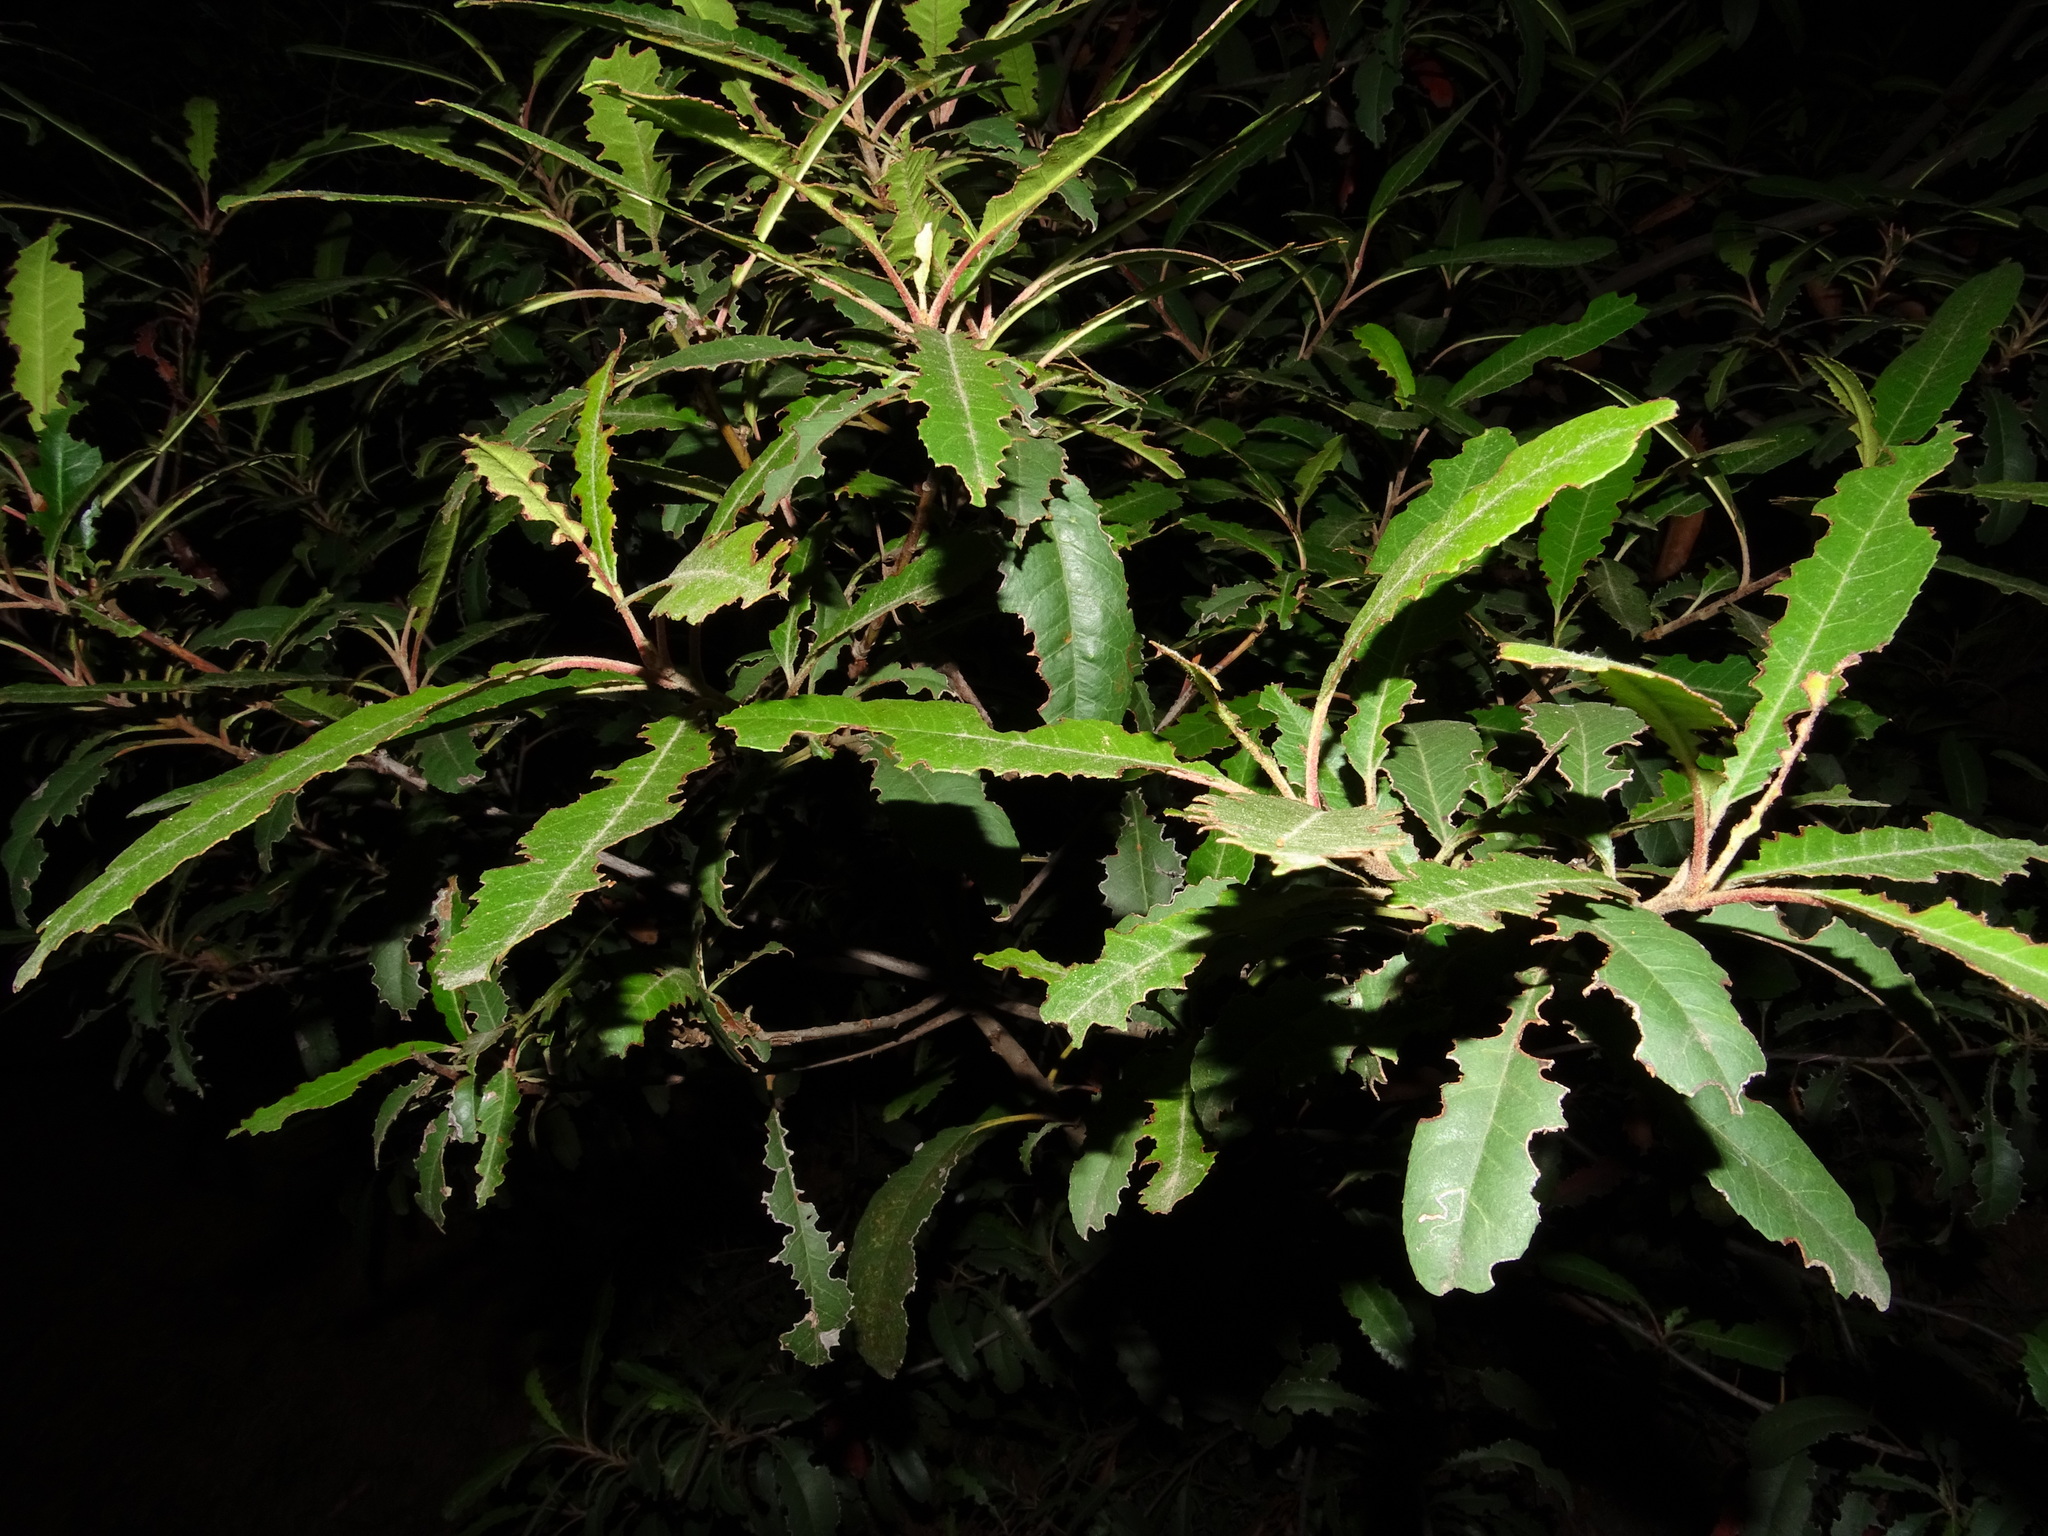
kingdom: Plantae
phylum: Tracheophyta
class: Magnoliopsida
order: Rosales
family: Rosaceae
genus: Heteromeles
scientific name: Heteromeles arbutifolia
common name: California-holly
